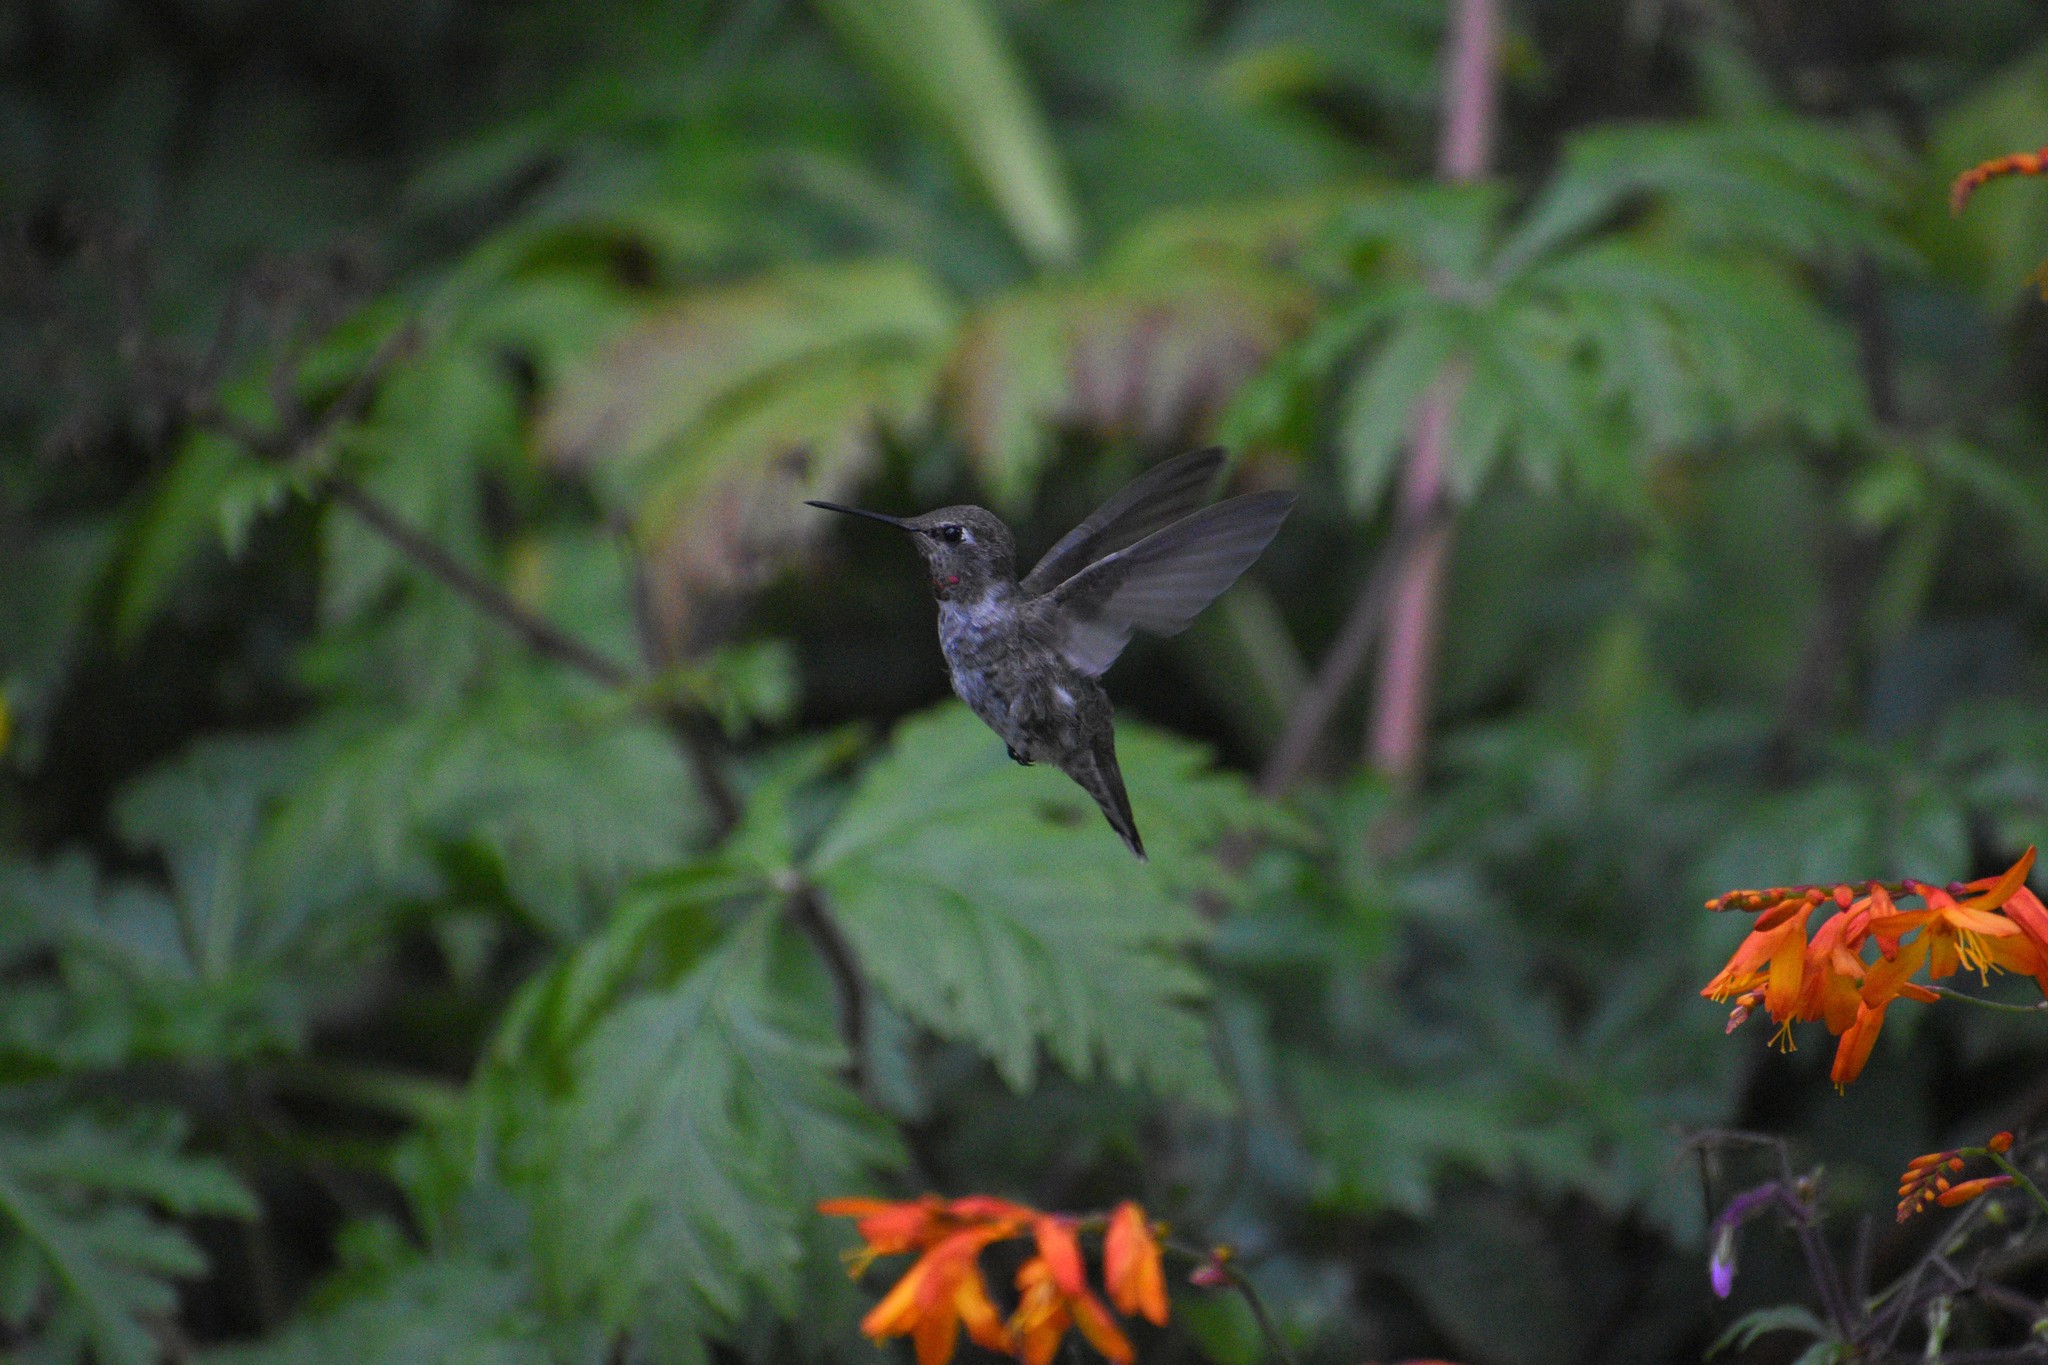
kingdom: Animalia
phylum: Chordata
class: Aves
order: Apodiformes
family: Trochilidae
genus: Calypte
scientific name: Calypte anna
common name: Anna's hummingbird
